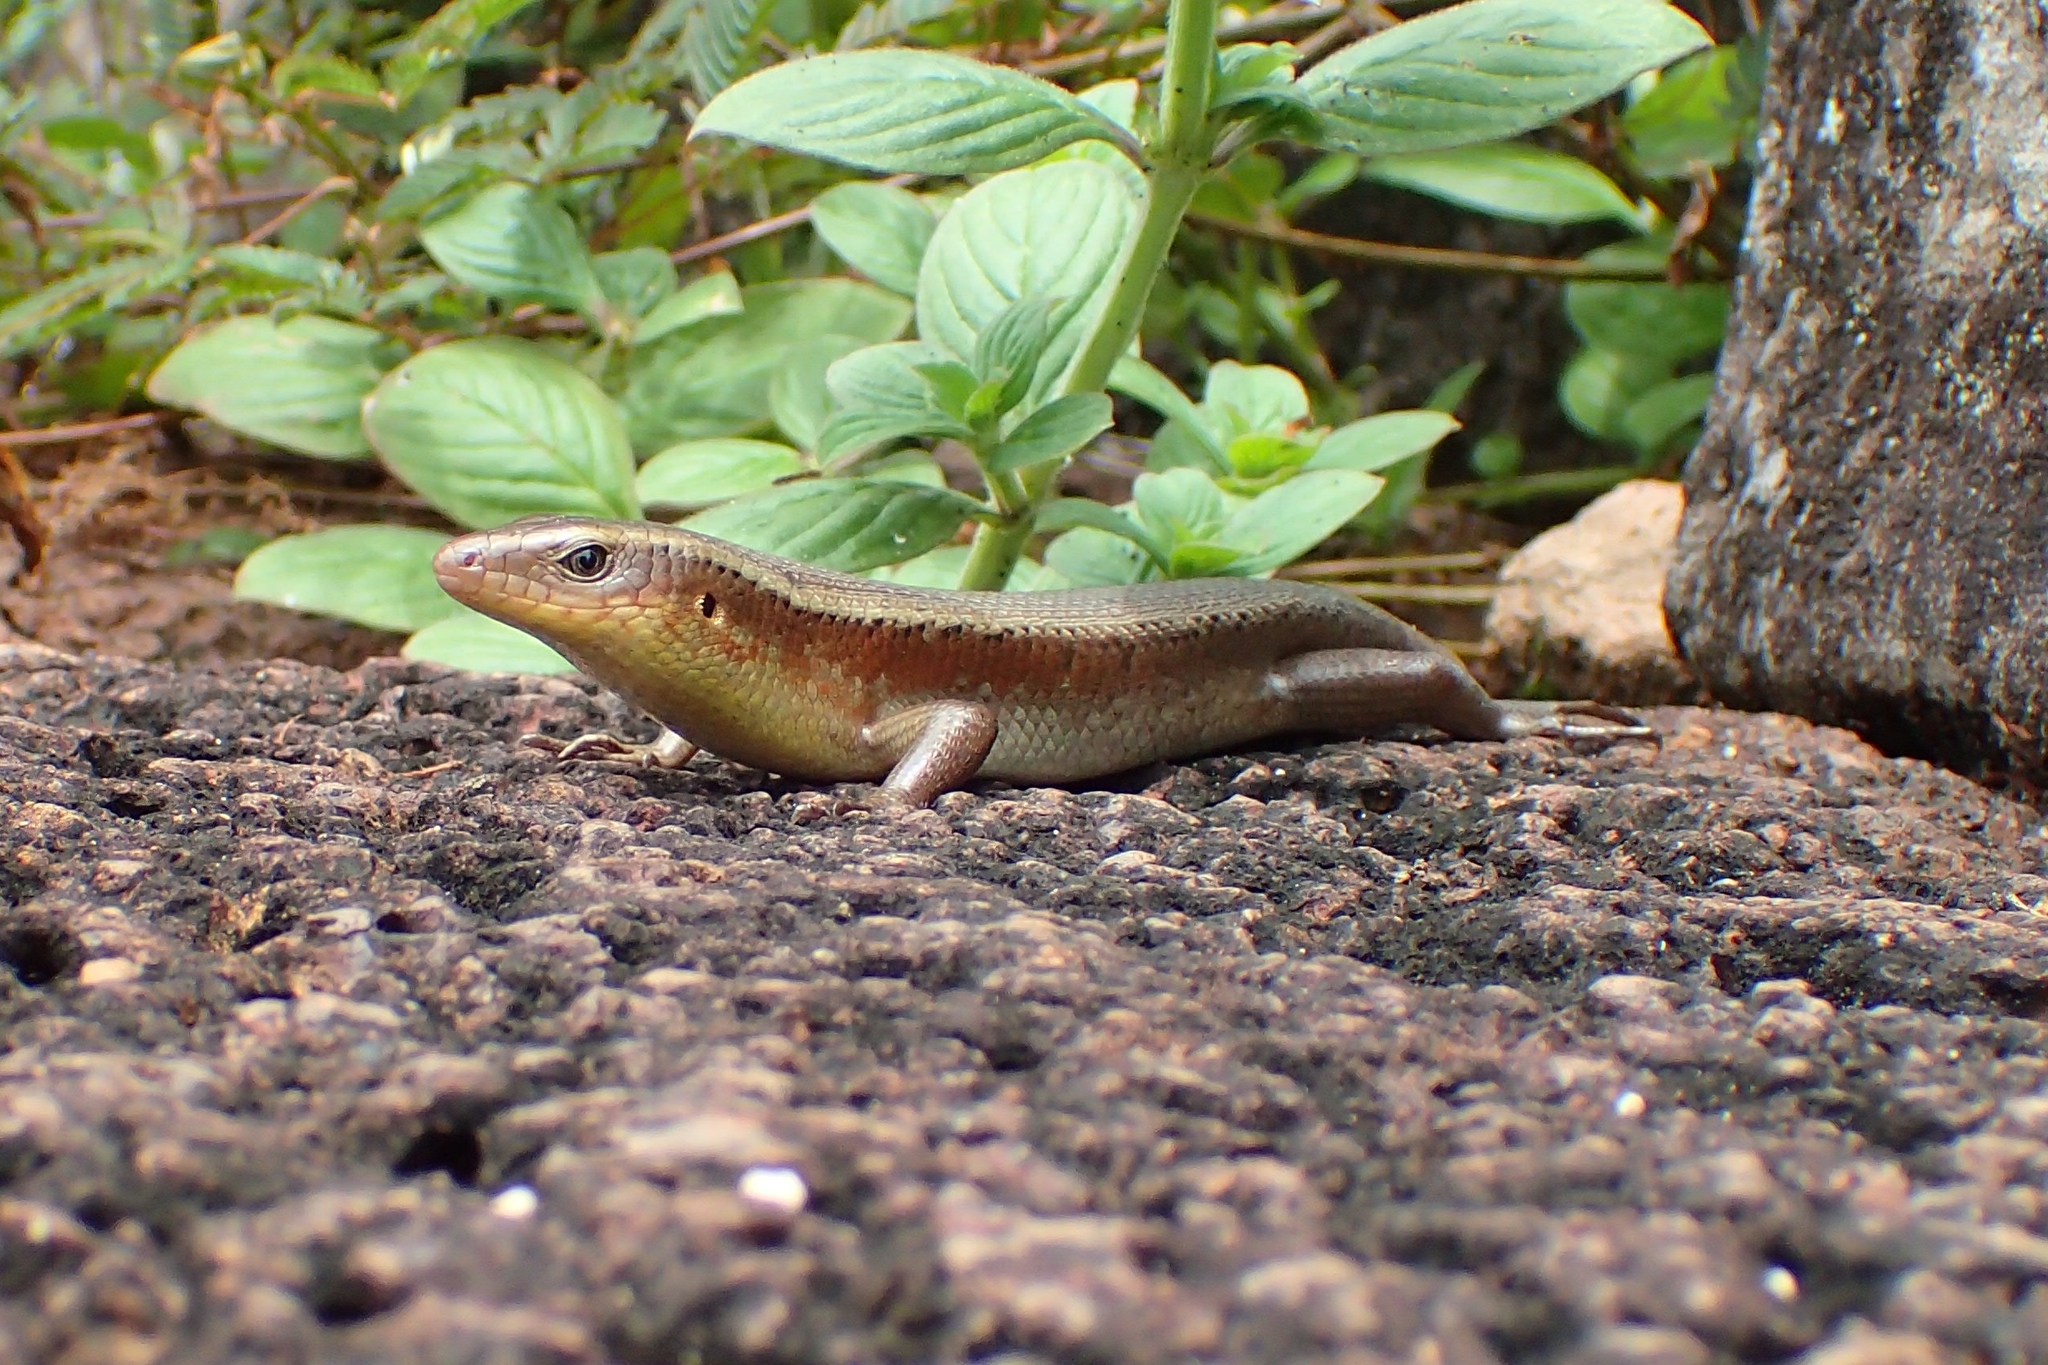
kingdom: Animalia
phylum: Chordata
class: Squamata
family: Scincidae
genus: Eutropis
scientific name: Eutropis multifasciata
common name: Common mabuya
